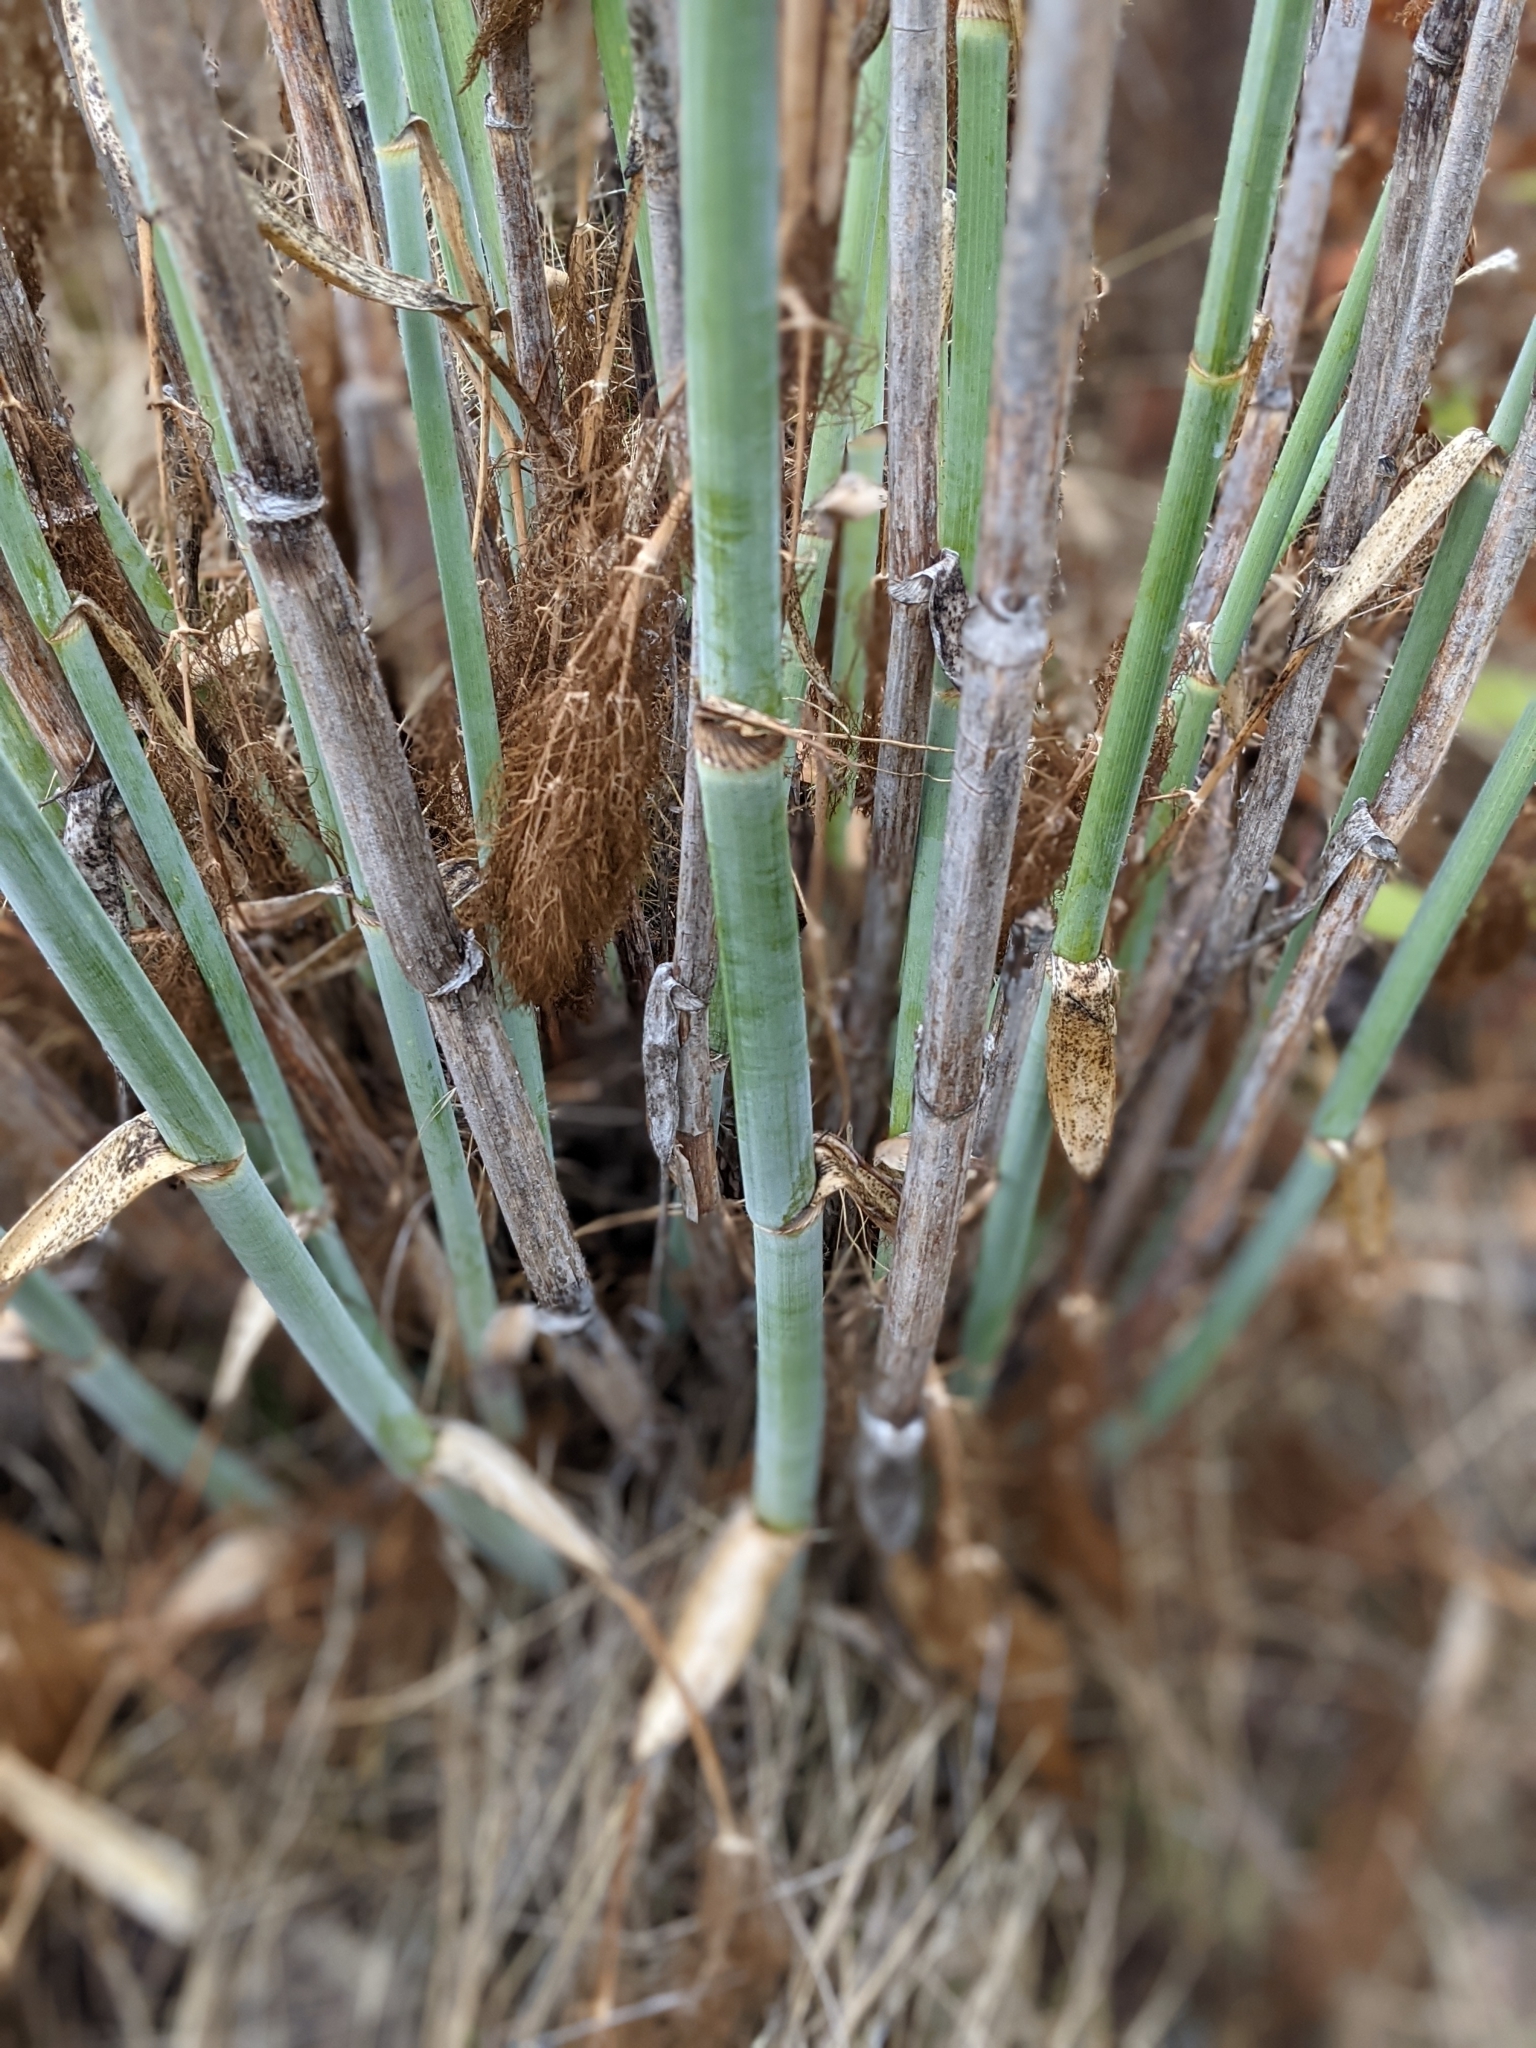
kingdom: Plantae
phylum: Tracheophyta
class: Magnoliopsida
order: Apiales
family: Apiaceae
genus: Foeniculum
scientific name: Foeniculum vulgare
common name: Fennel
